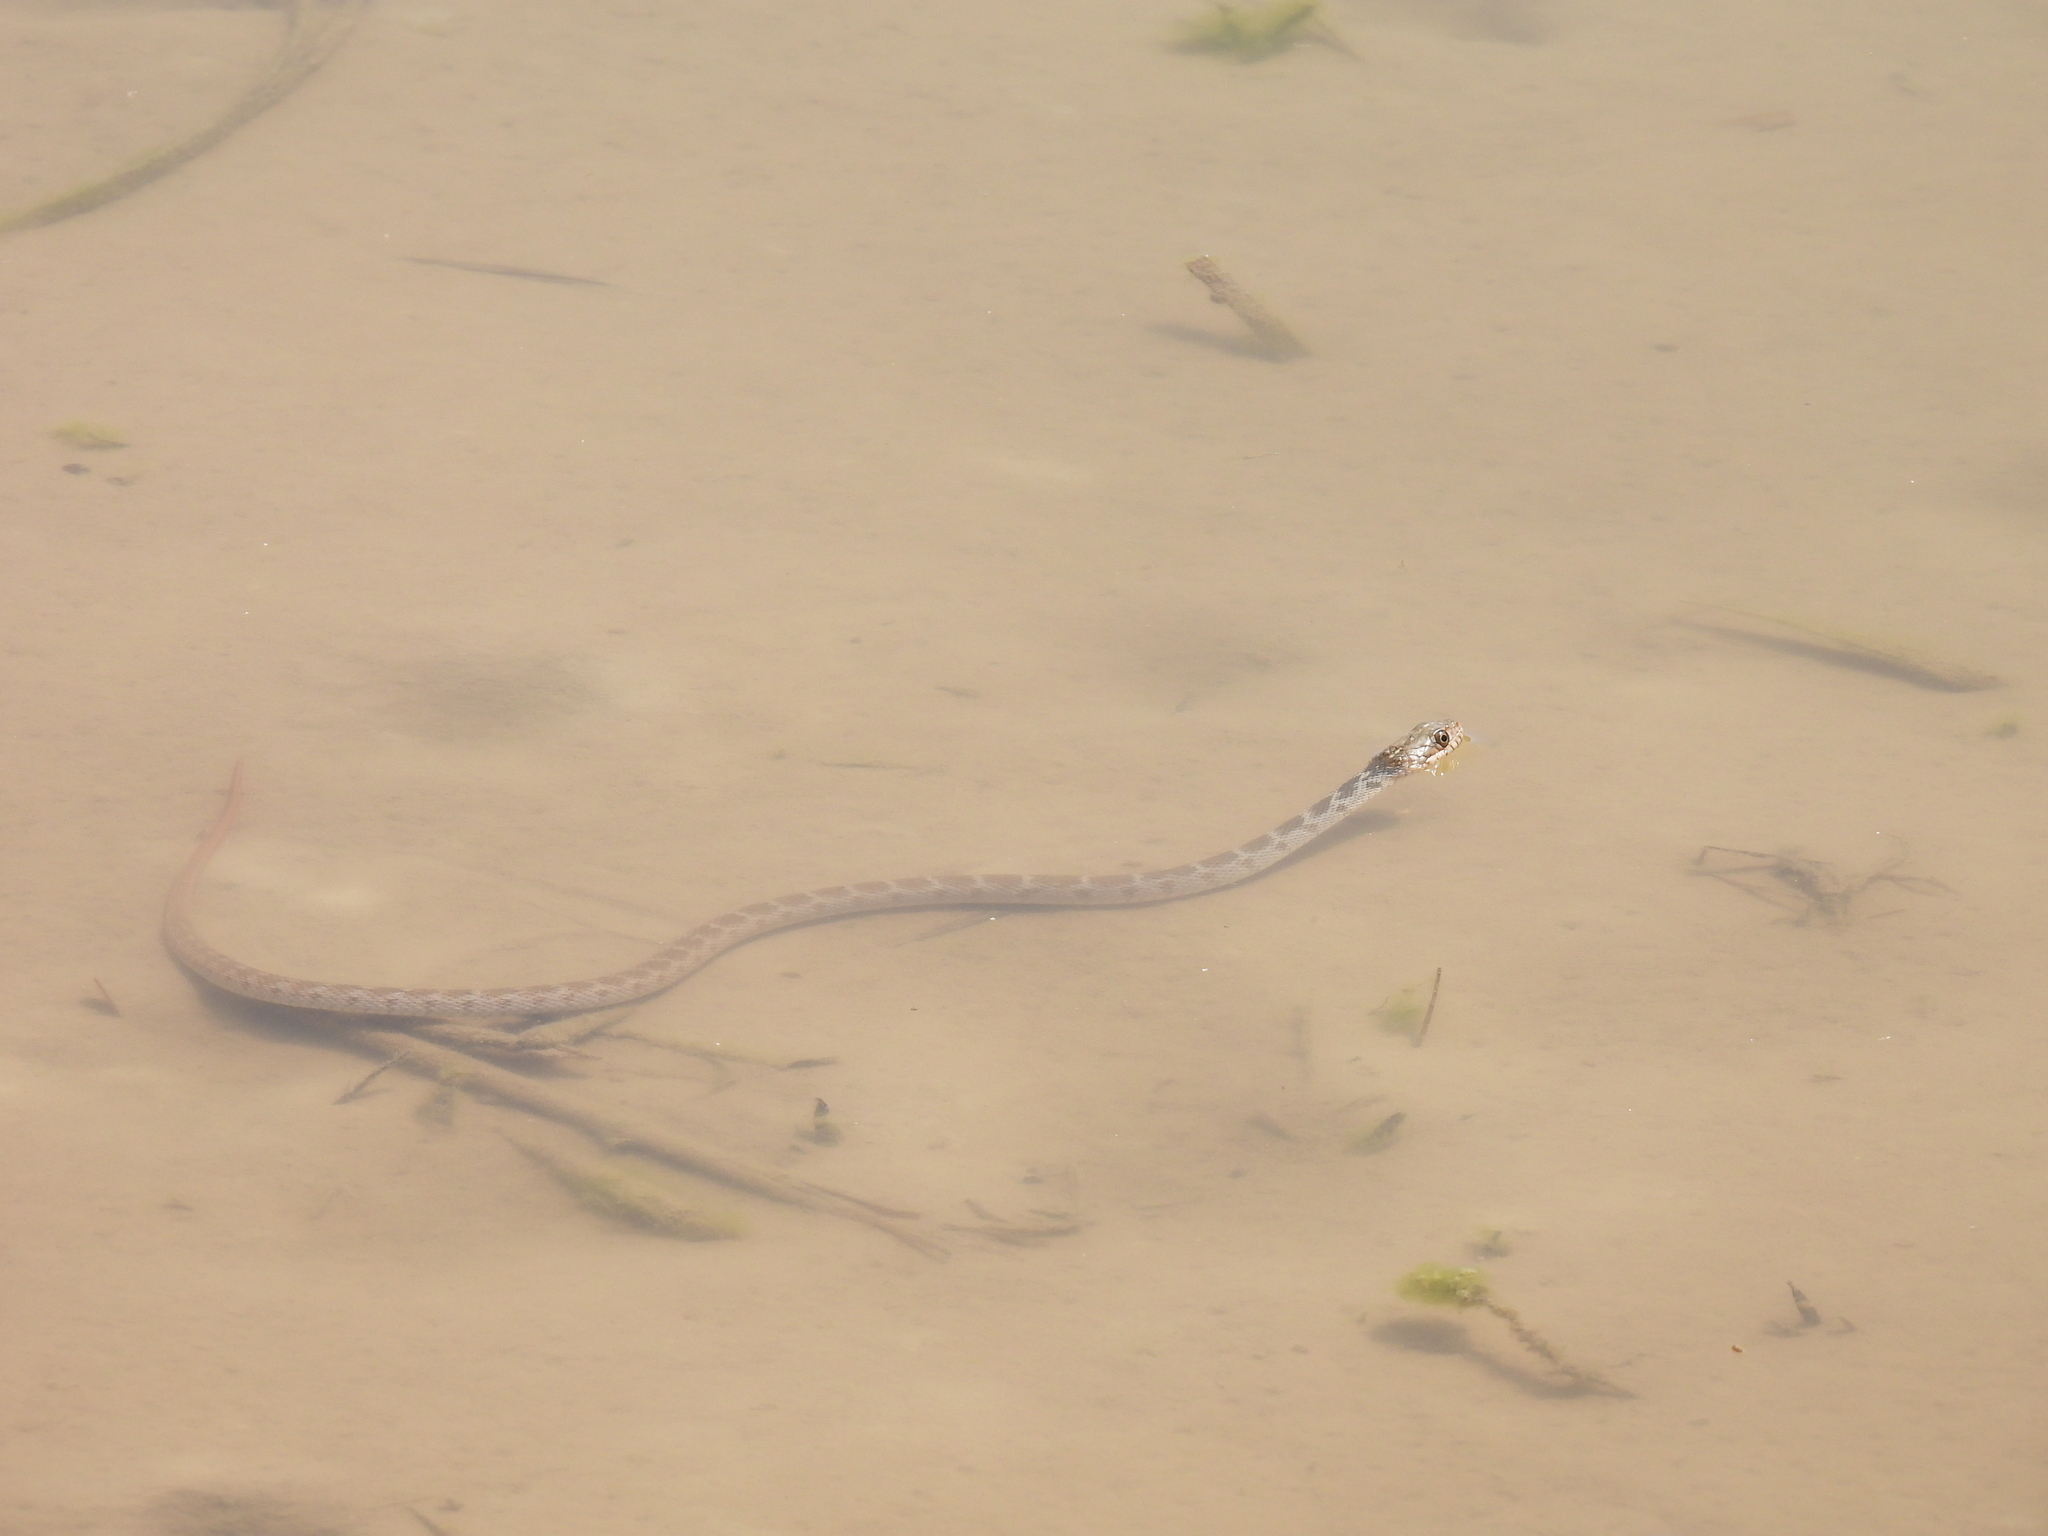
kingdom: Animalia
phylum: Chordata
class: Squamata
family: Colubridae
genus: Nerodia
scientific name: Nerodia erythrogaster
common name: Plainbelly water snake
